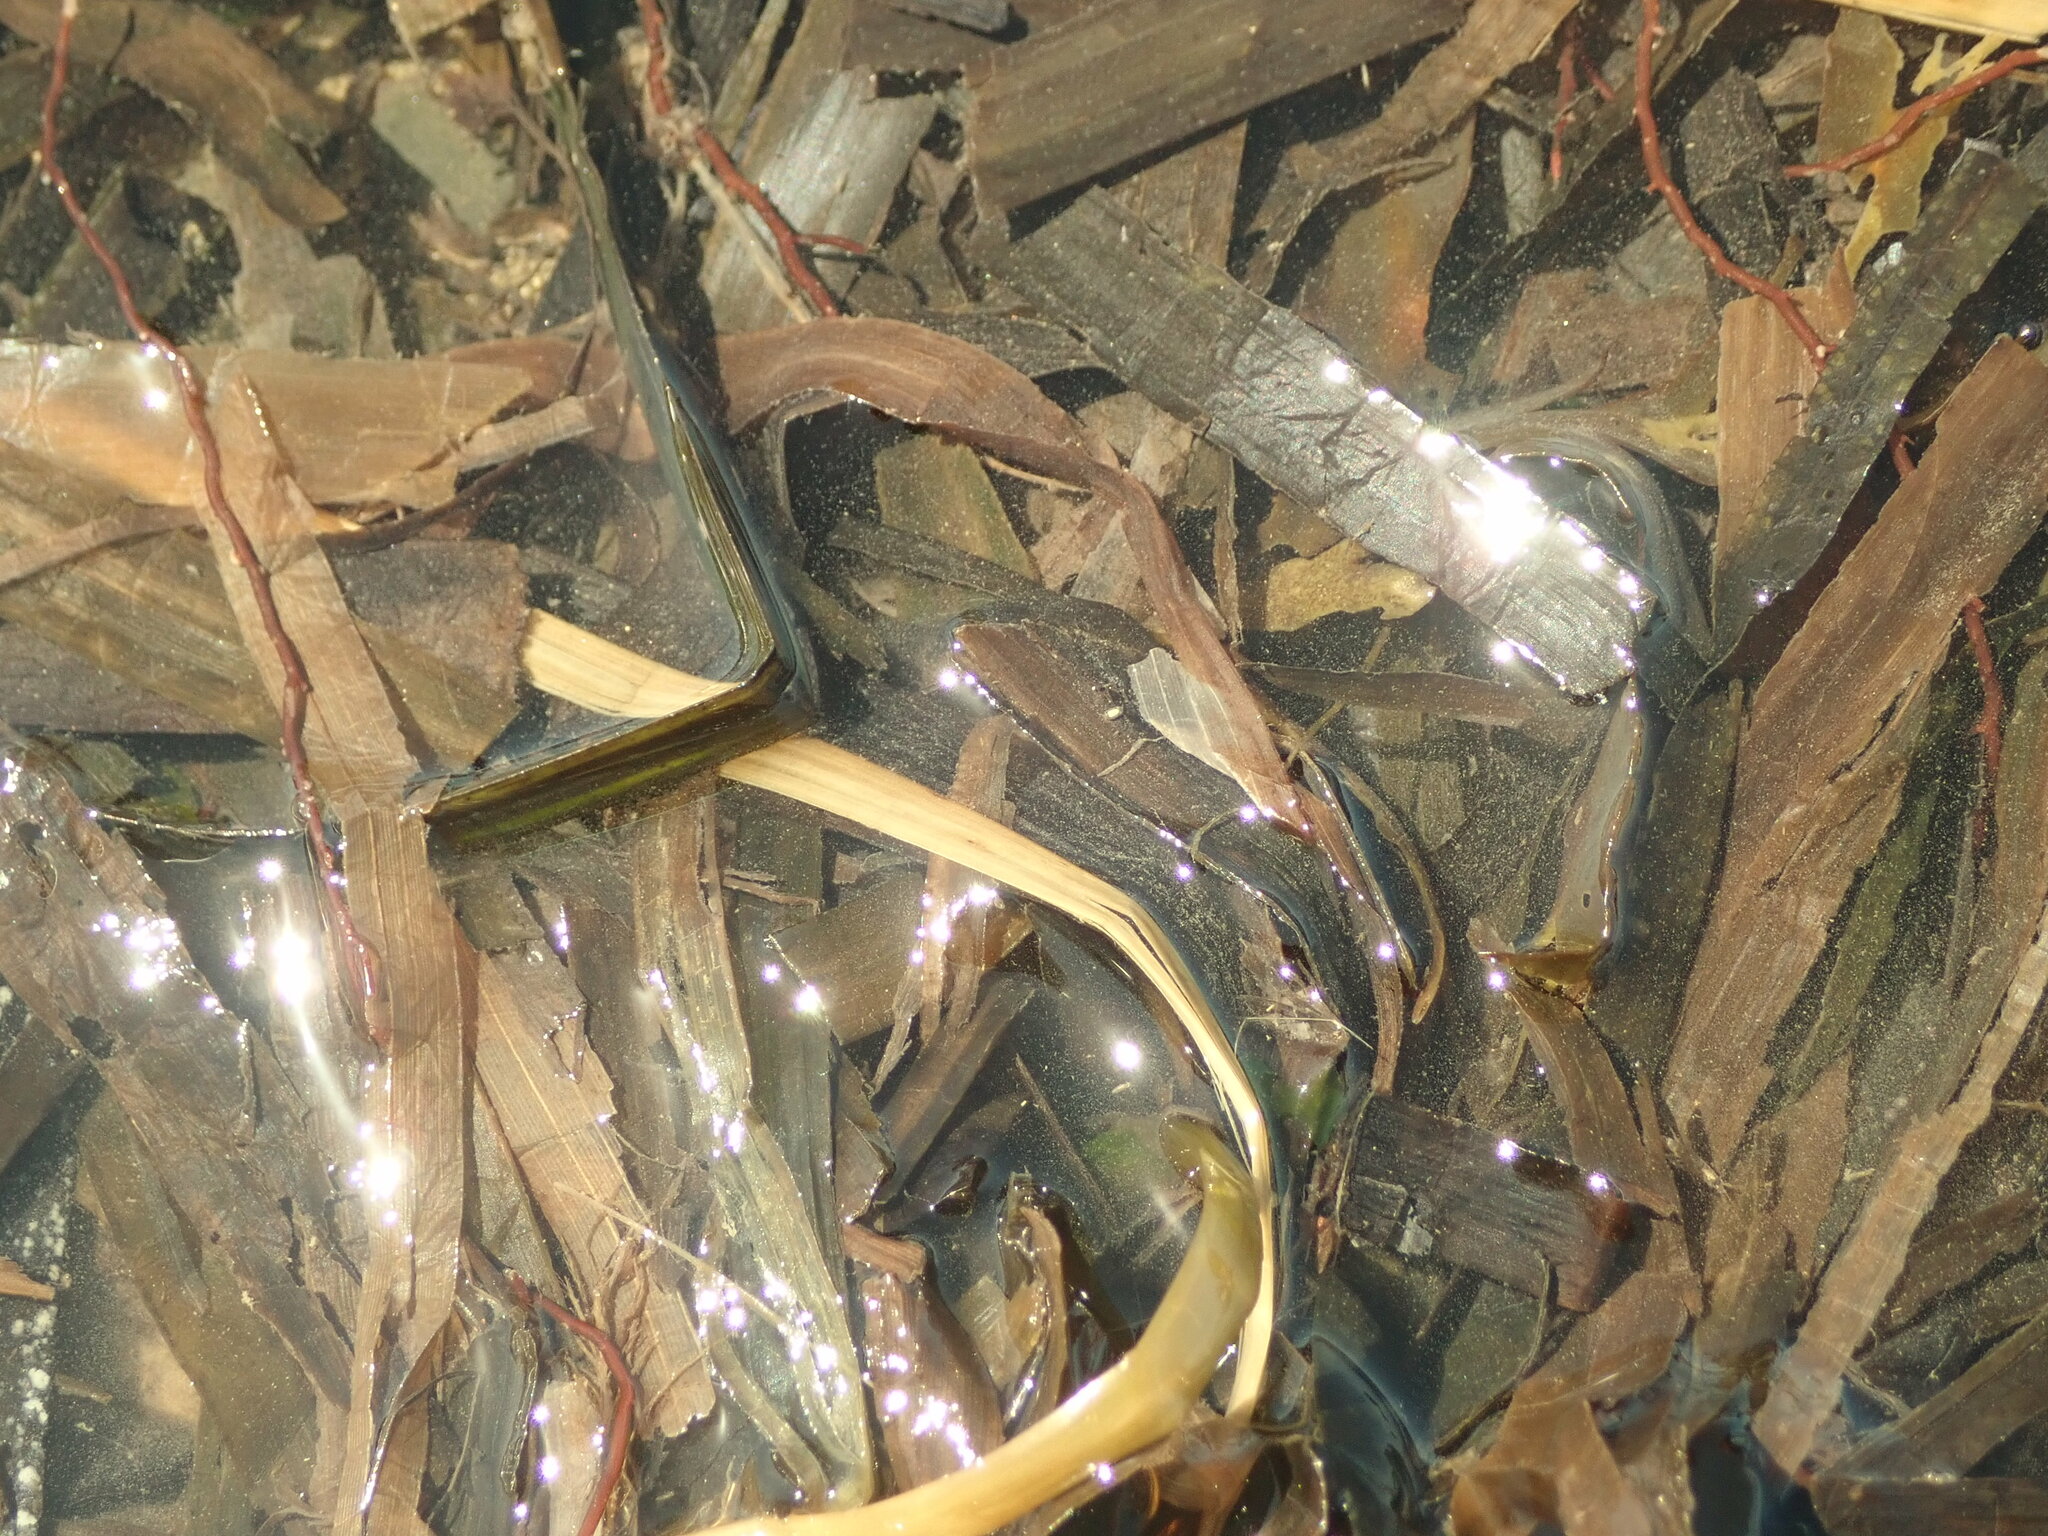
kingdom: Plantae
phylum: Tracheophyta
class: Liliopsida
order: Alismatales
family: Zosteraceae
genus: Zostera
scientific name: Zostera marina
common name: Eelgrass
